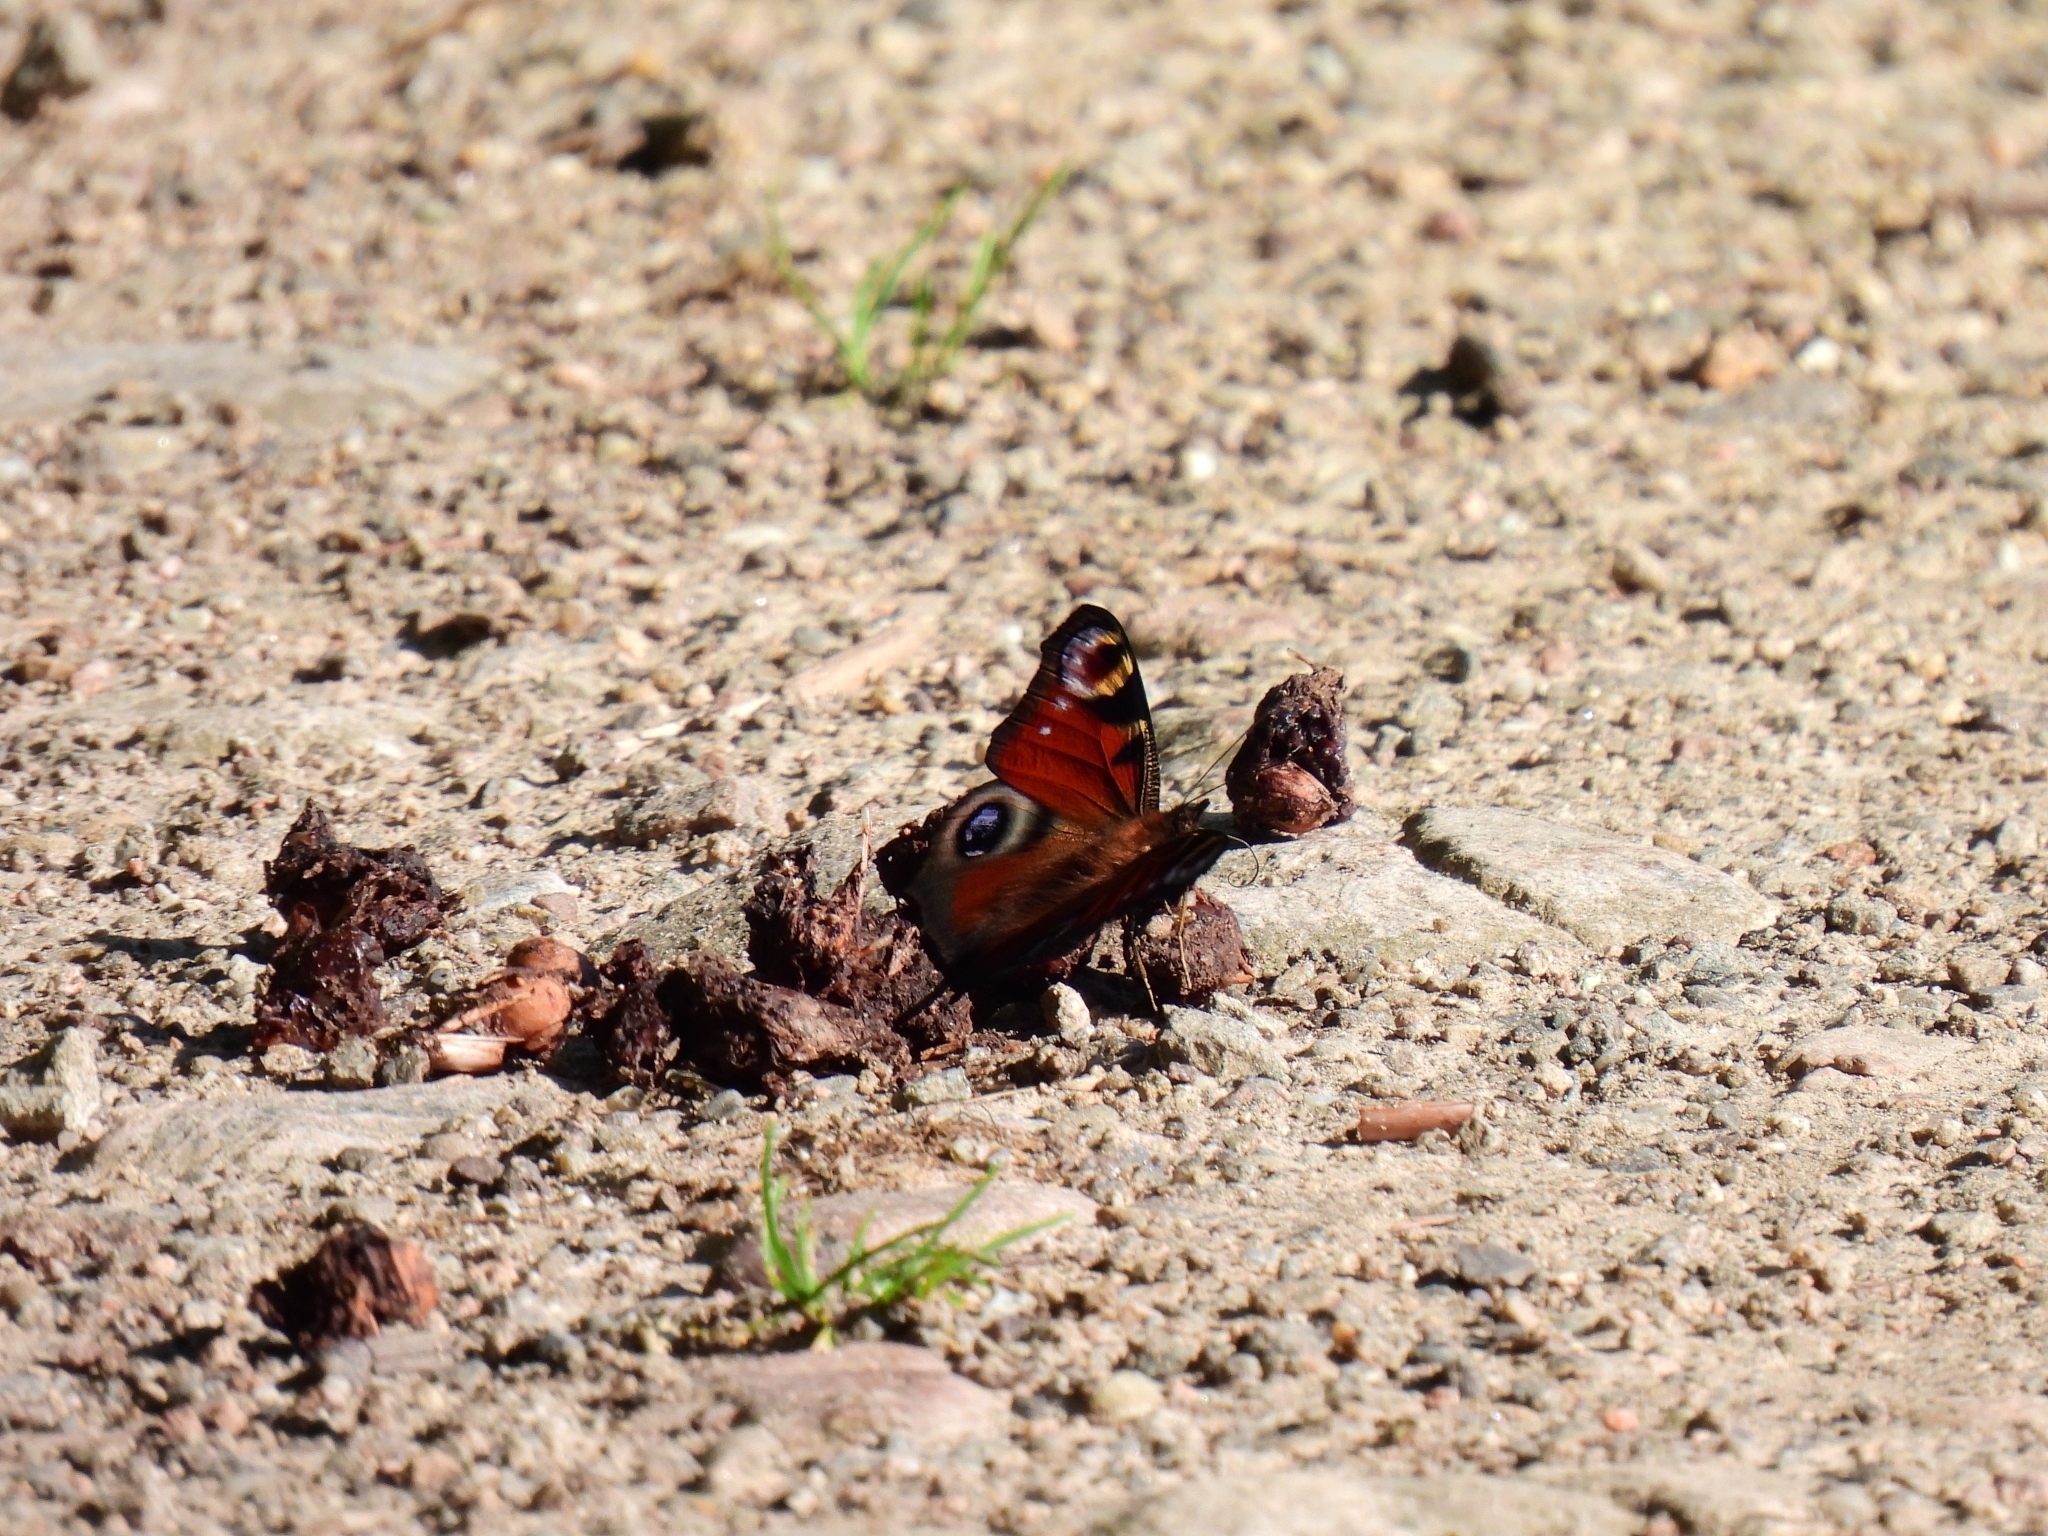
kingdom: Animalia
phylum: Arthropoda
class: Insecta
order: Lepidoptera
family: Nymphalidae
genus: Aglais
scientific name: Aglais io
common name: Peacock
